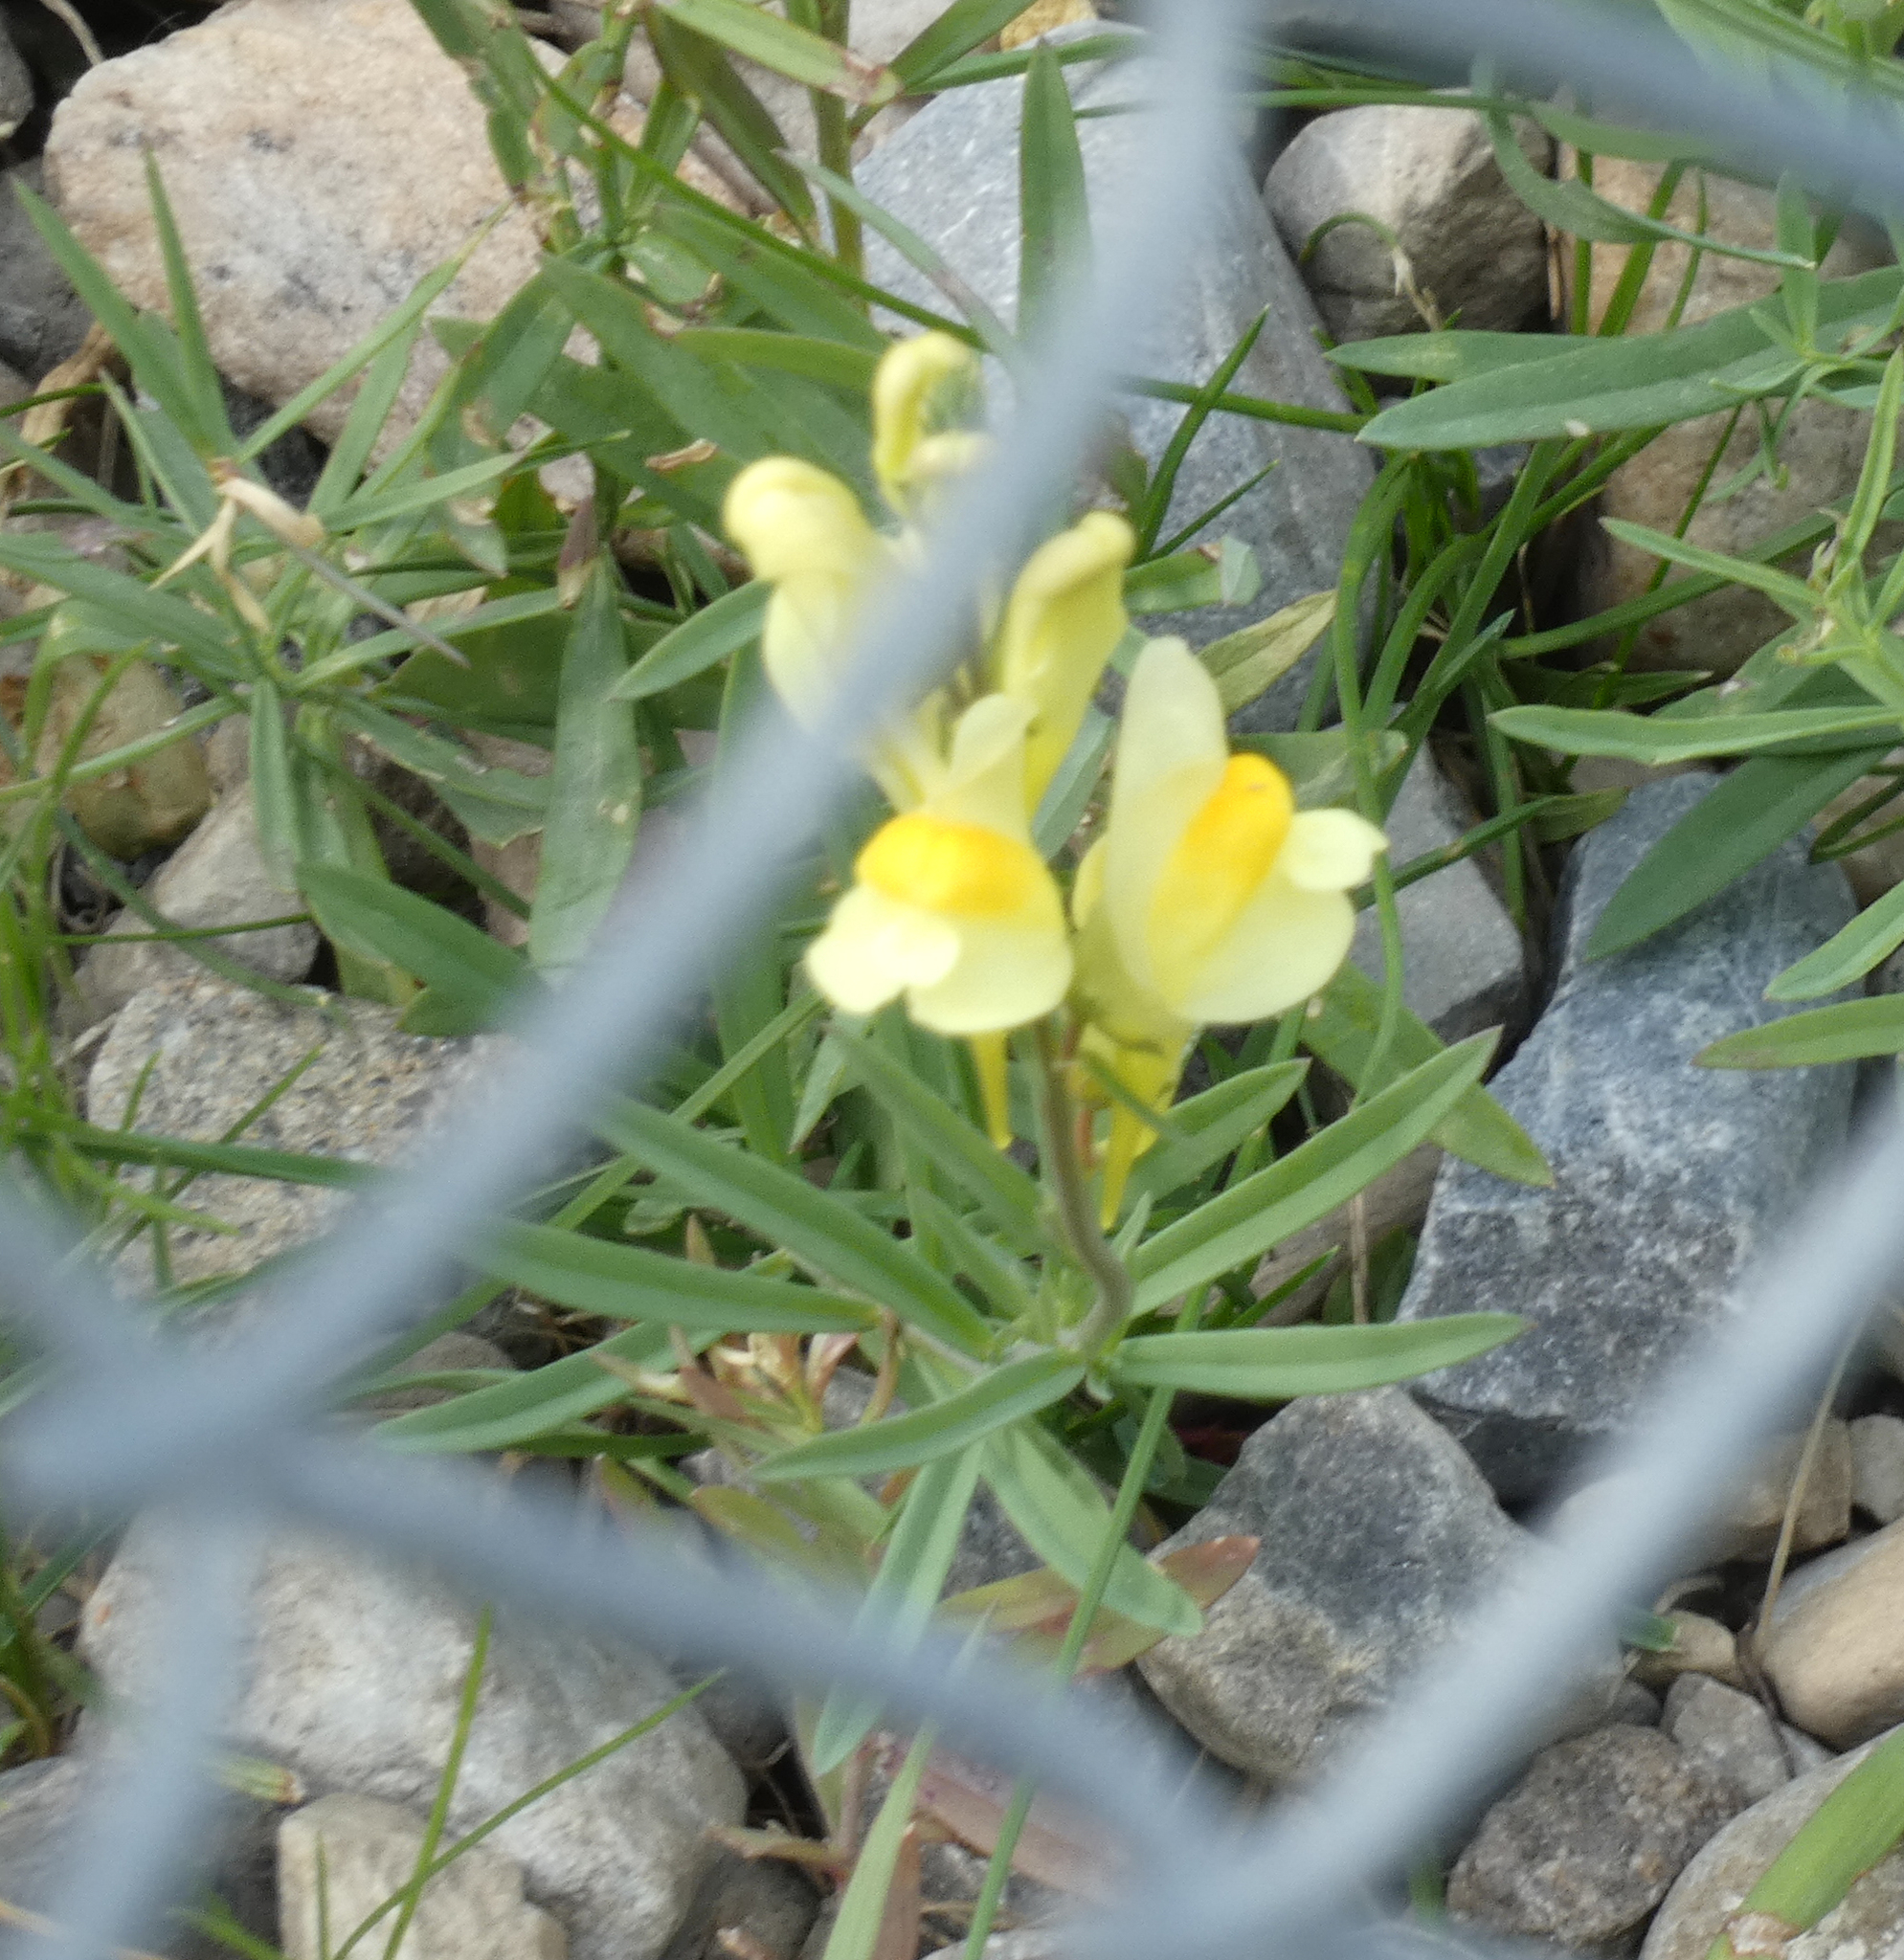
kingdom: Plantae
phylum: Tracheophyta
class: Magnoliopsida
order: Lamiales
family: Plantaginaceae
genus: Linaria
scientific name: Linaria vulgaris
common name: Butter and eggs
